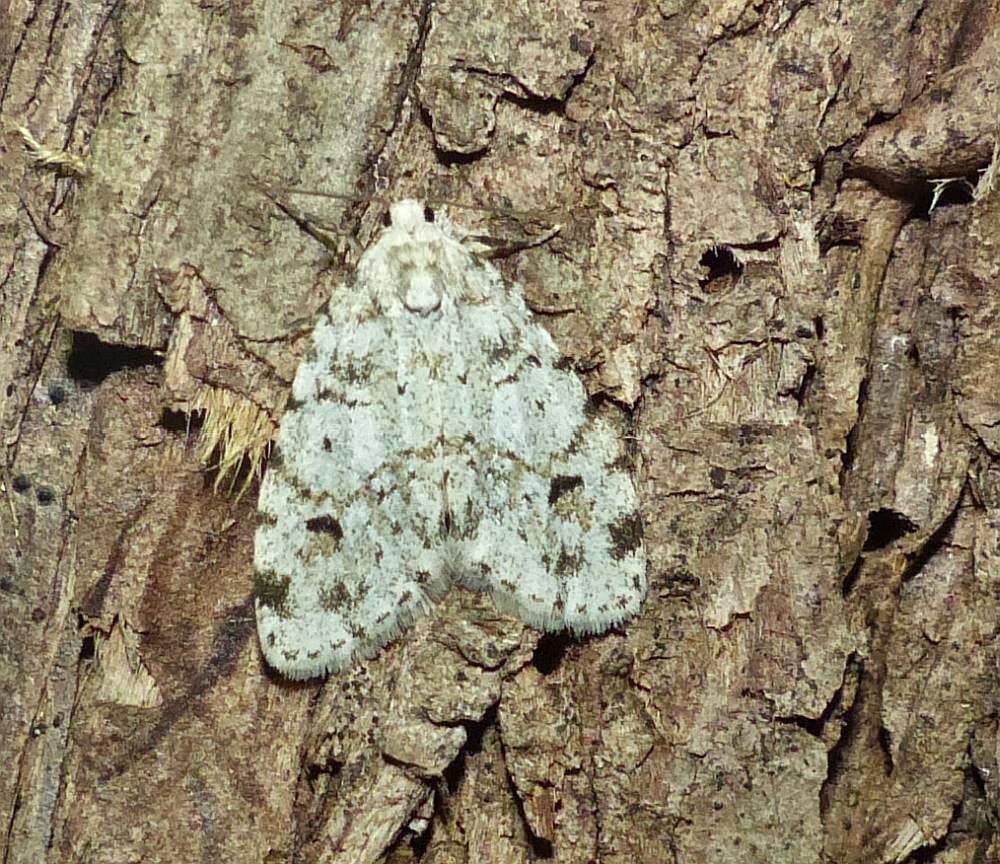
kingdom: Animalia
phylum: Arthropoda
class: Insecta
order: Lepidoptera
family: Erebidae
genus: Clemensia
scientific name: Clemensia albata
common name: Little white lichen moth
